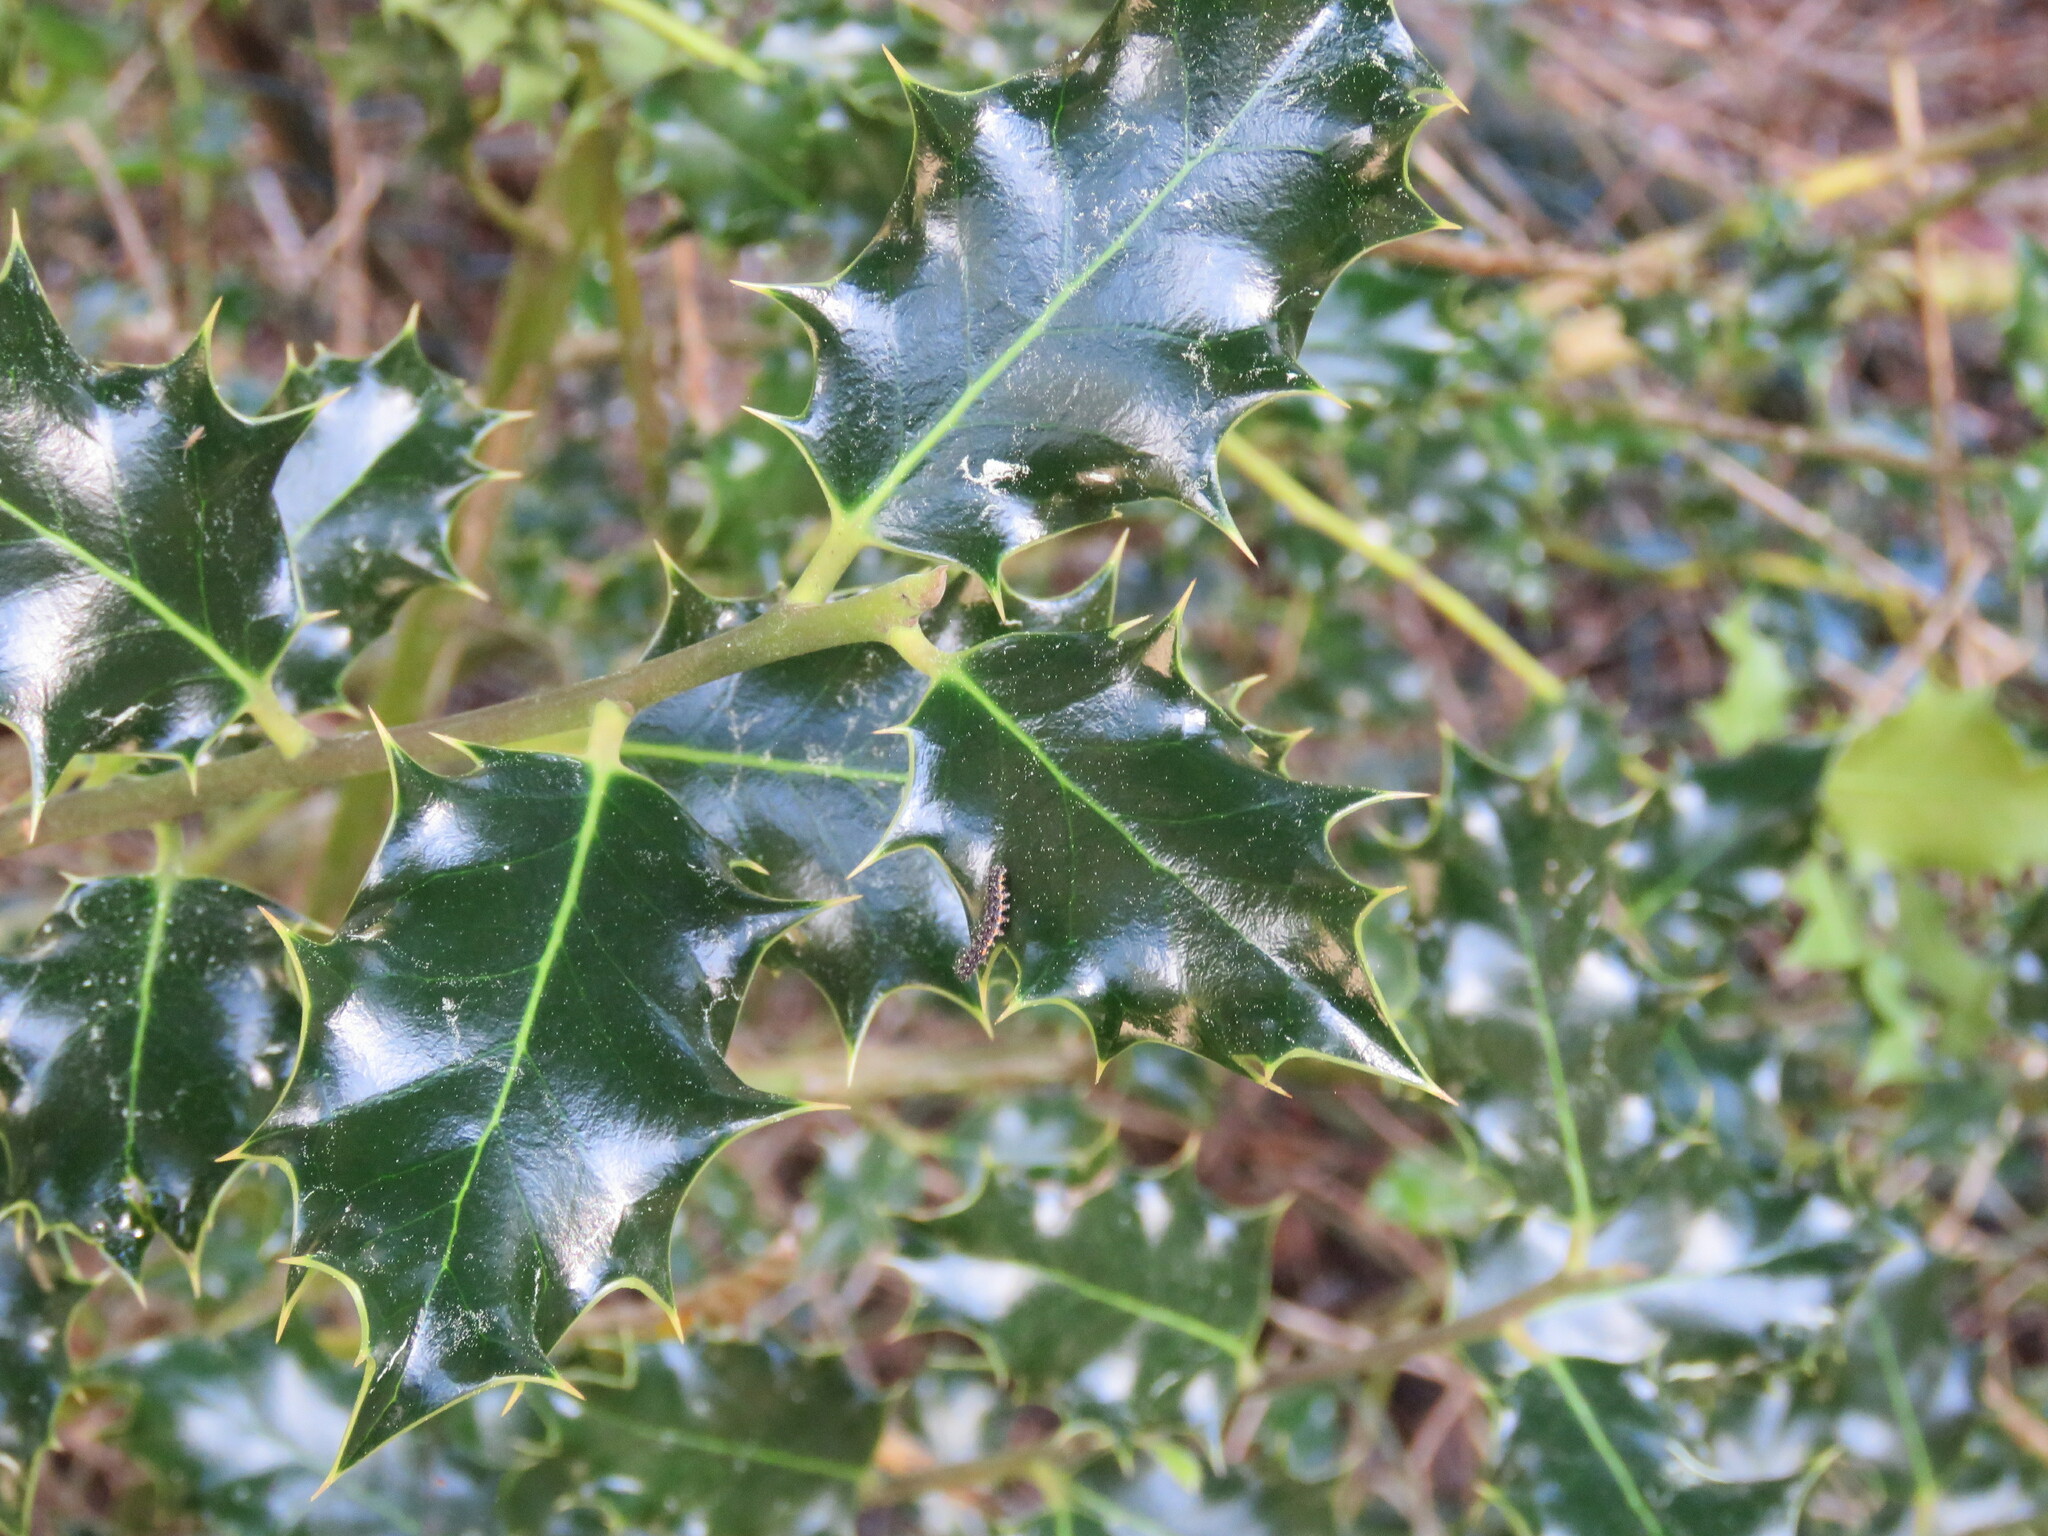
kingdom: Plantae
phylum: Tracheophyta
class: Magnoliopsida
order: Aquifoliales
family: Aquifoliaceae
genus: Ilex
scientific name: Ilex aquifolium
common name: English holly
